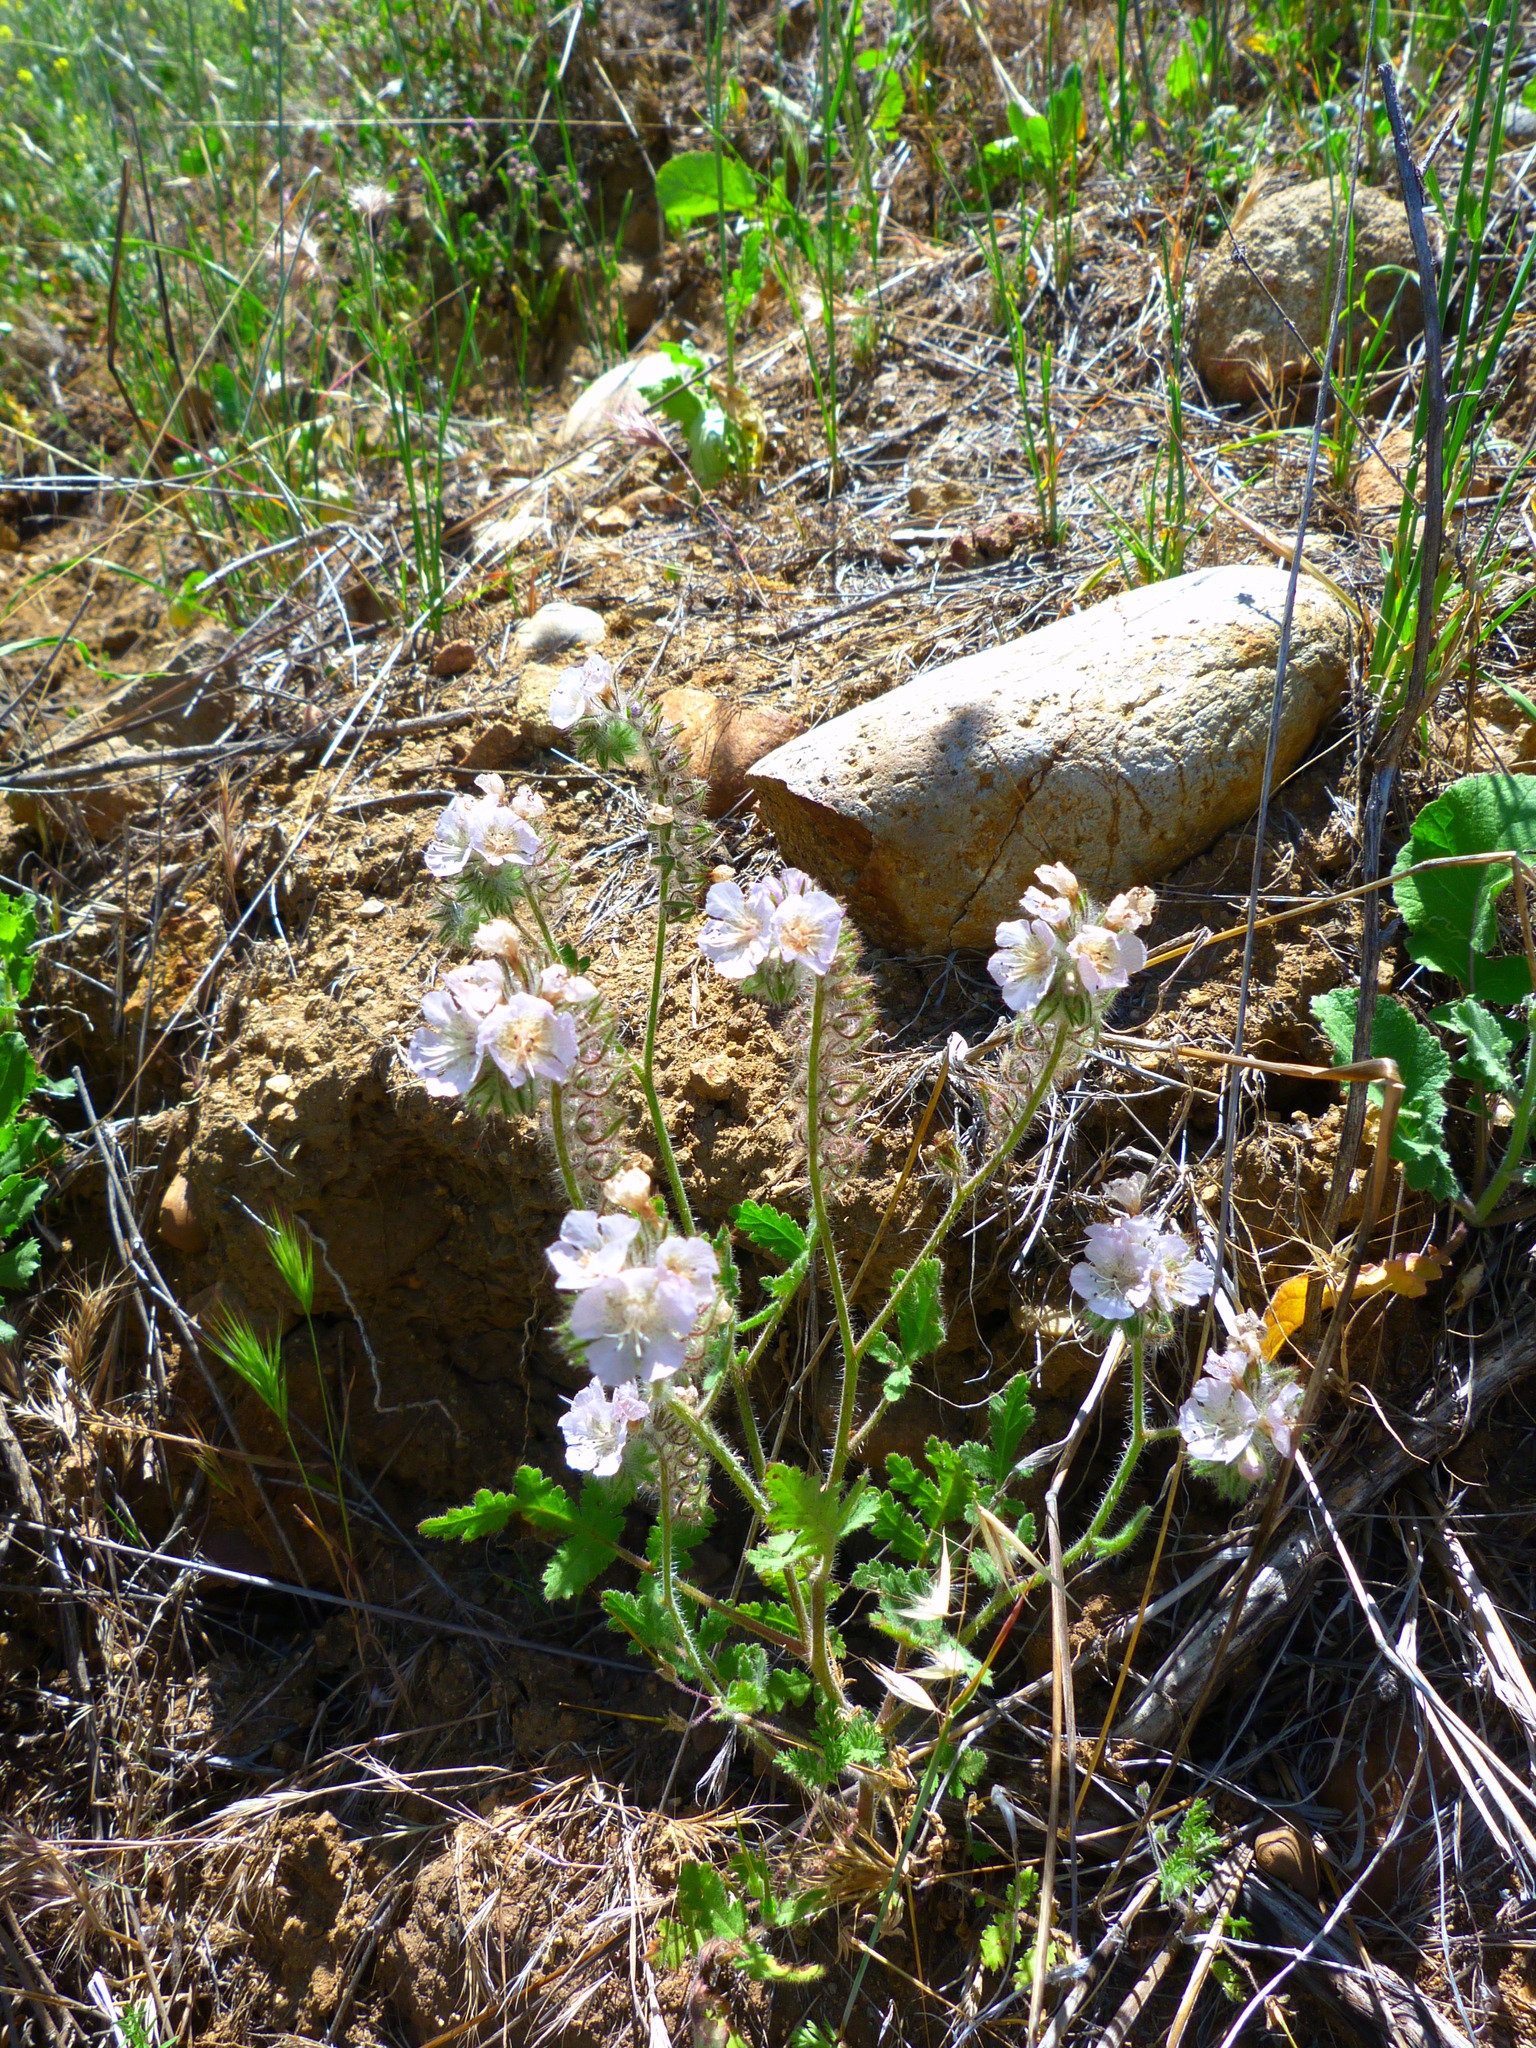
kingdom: Plantae
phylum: Tracheophyta
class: Magnoliopsida
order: Boraginales
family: Hydrophyllaceae
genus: Phacelia
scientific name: Phacelia cicutaria
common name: Caterpillar phacelia
